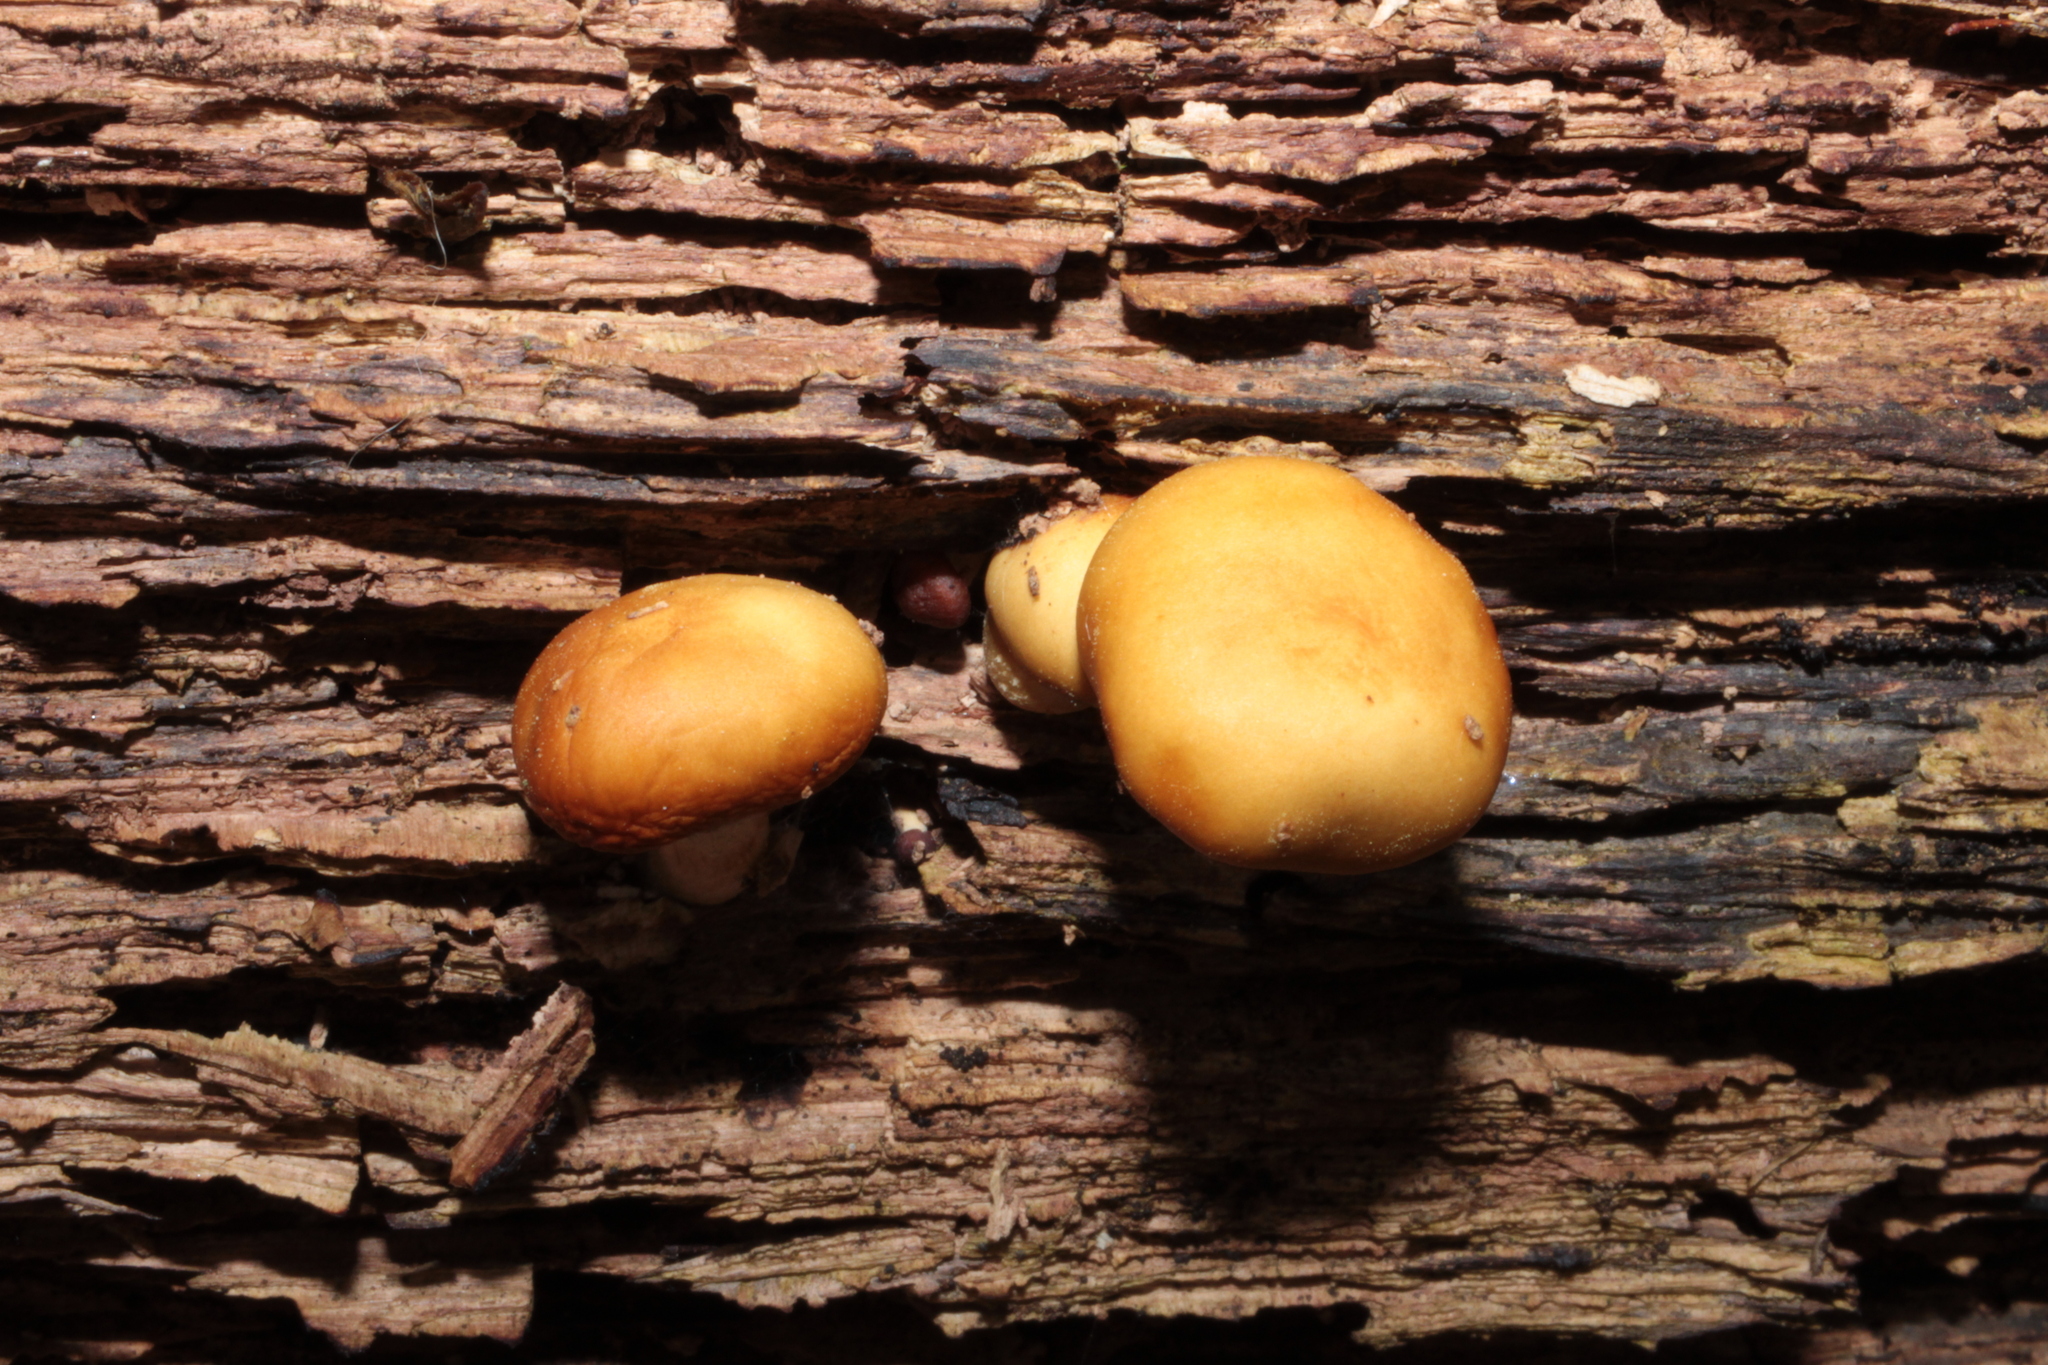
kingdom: Fungi
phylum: Basidiomycota
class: Agaricomycetes
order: Agaricales
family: Hymenogastraceae
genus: Galerina
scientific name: Galerina marginata
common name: Funeral bell
